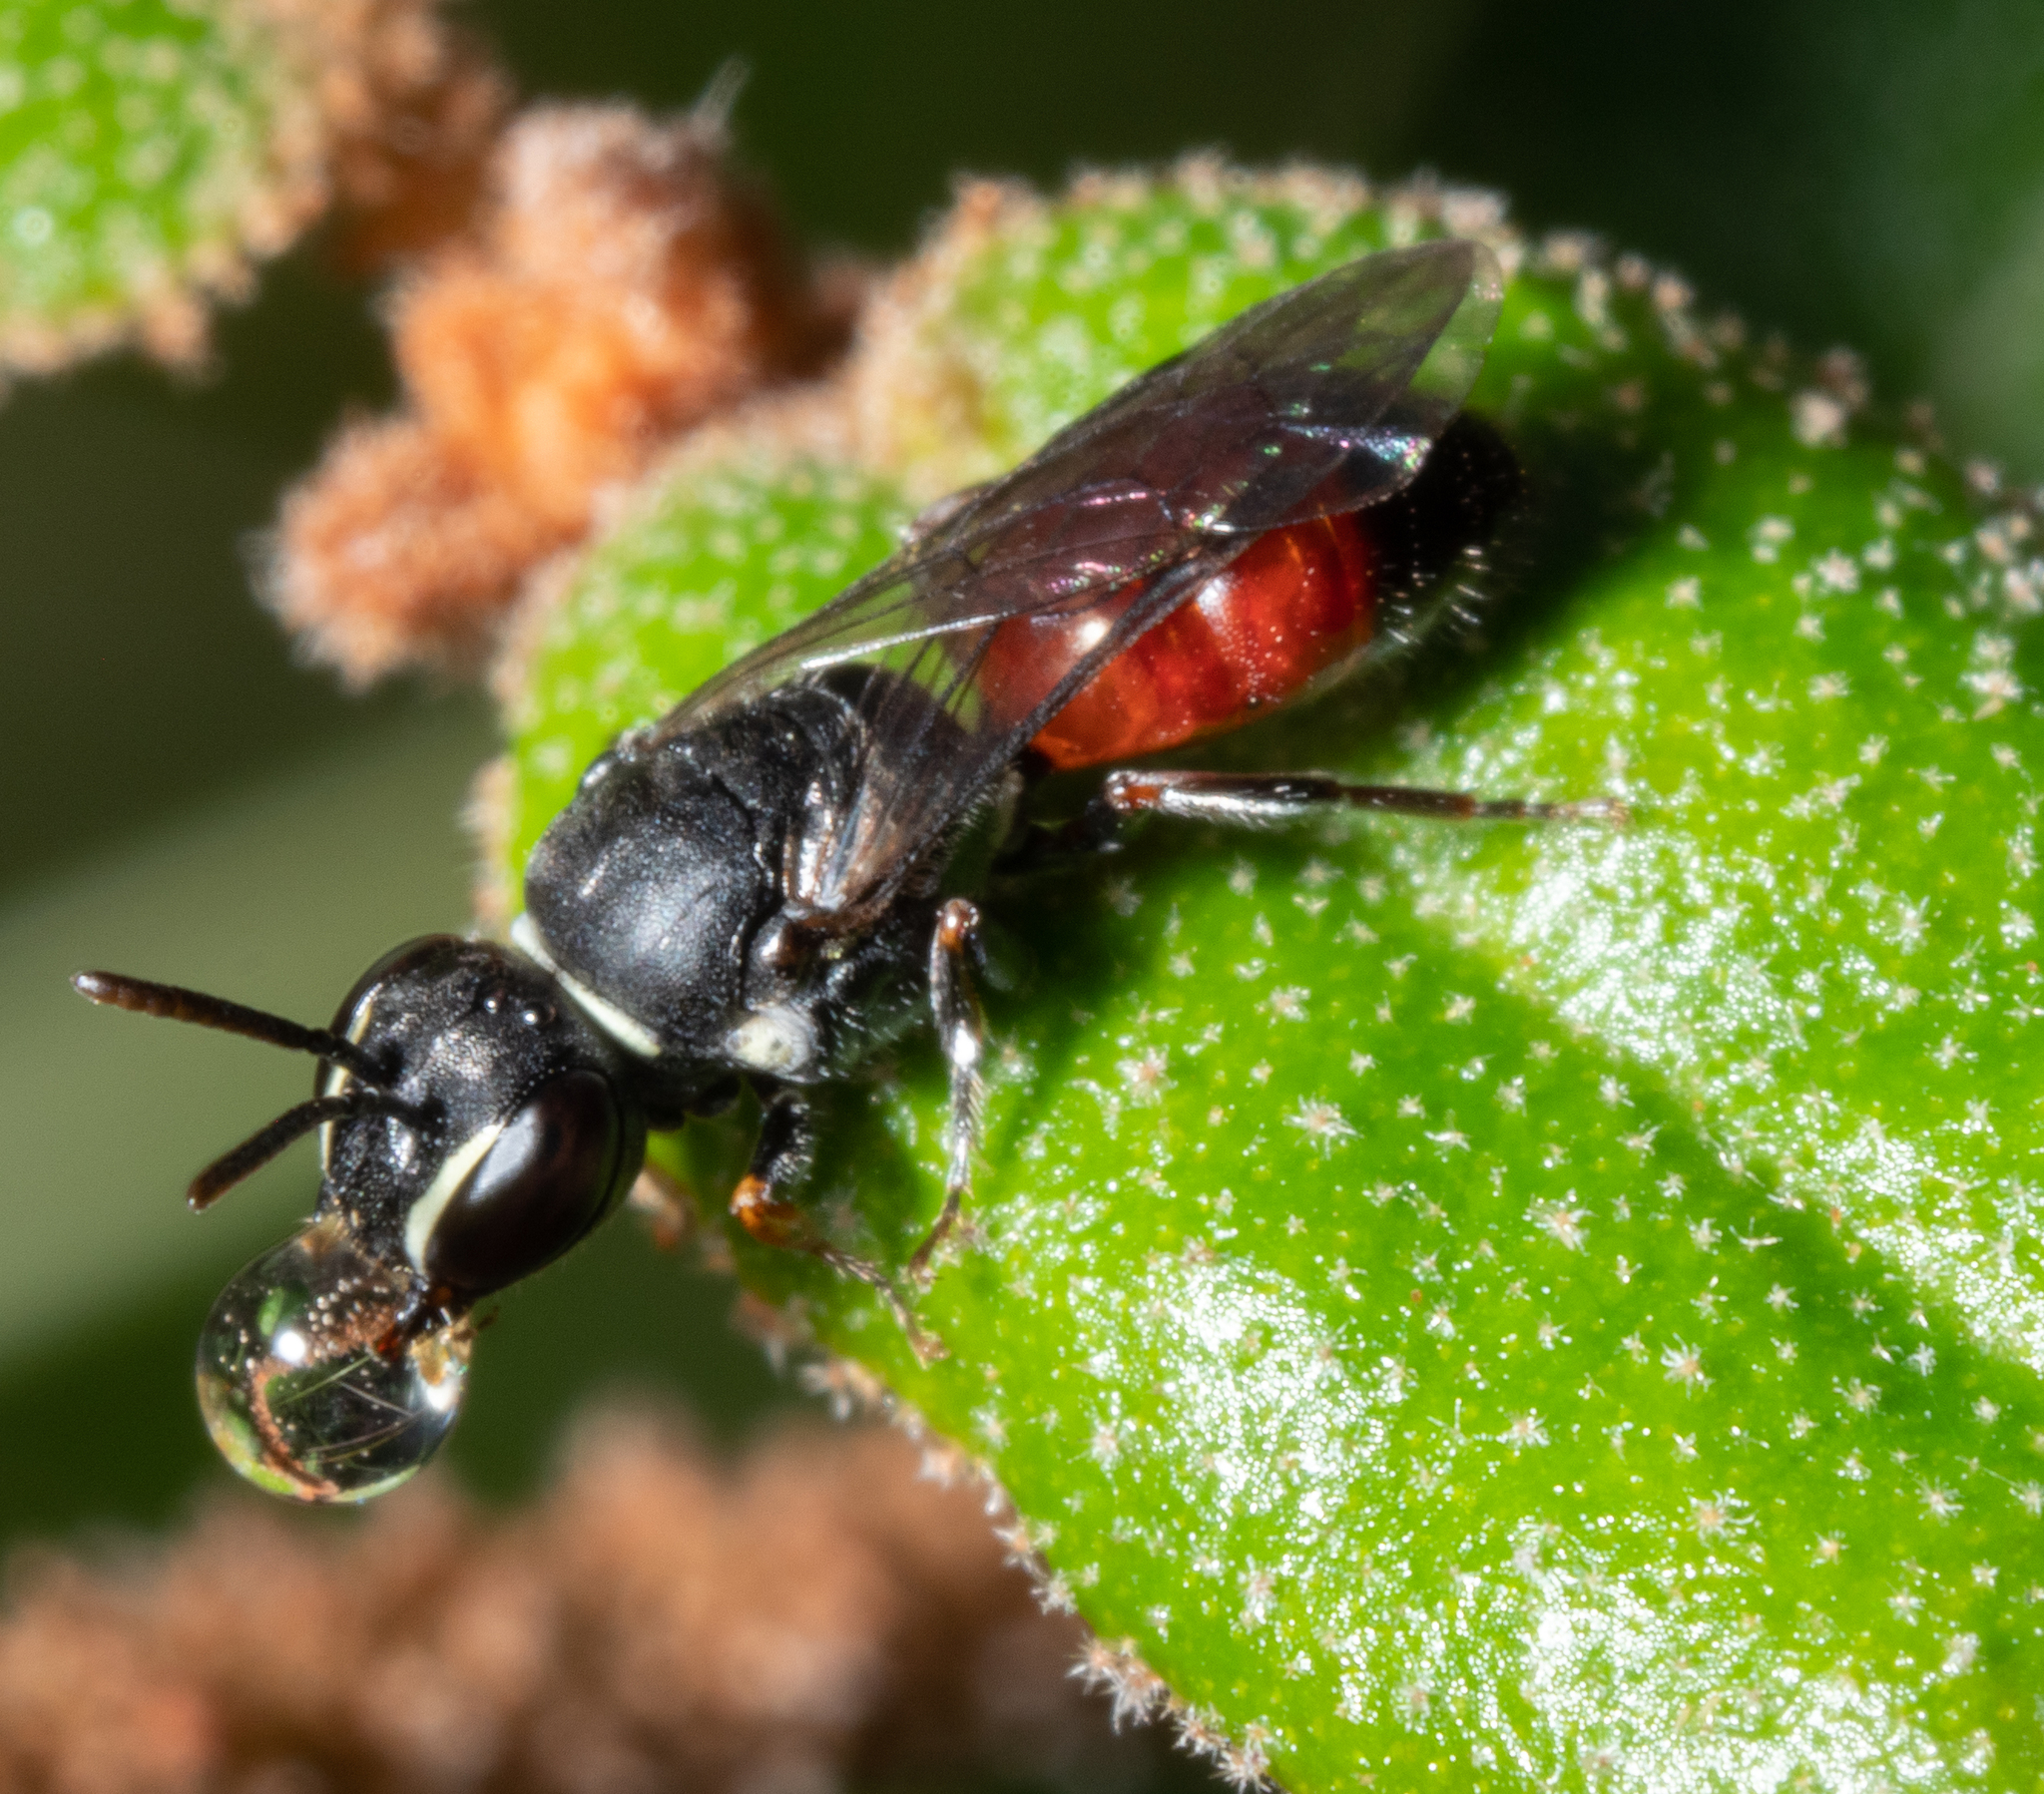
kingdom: Animalia
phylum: Arthropoda
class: Insecta
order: Hymenoptera
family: Colletidae
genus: Hylaeus
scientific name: Hylaeus littleri
